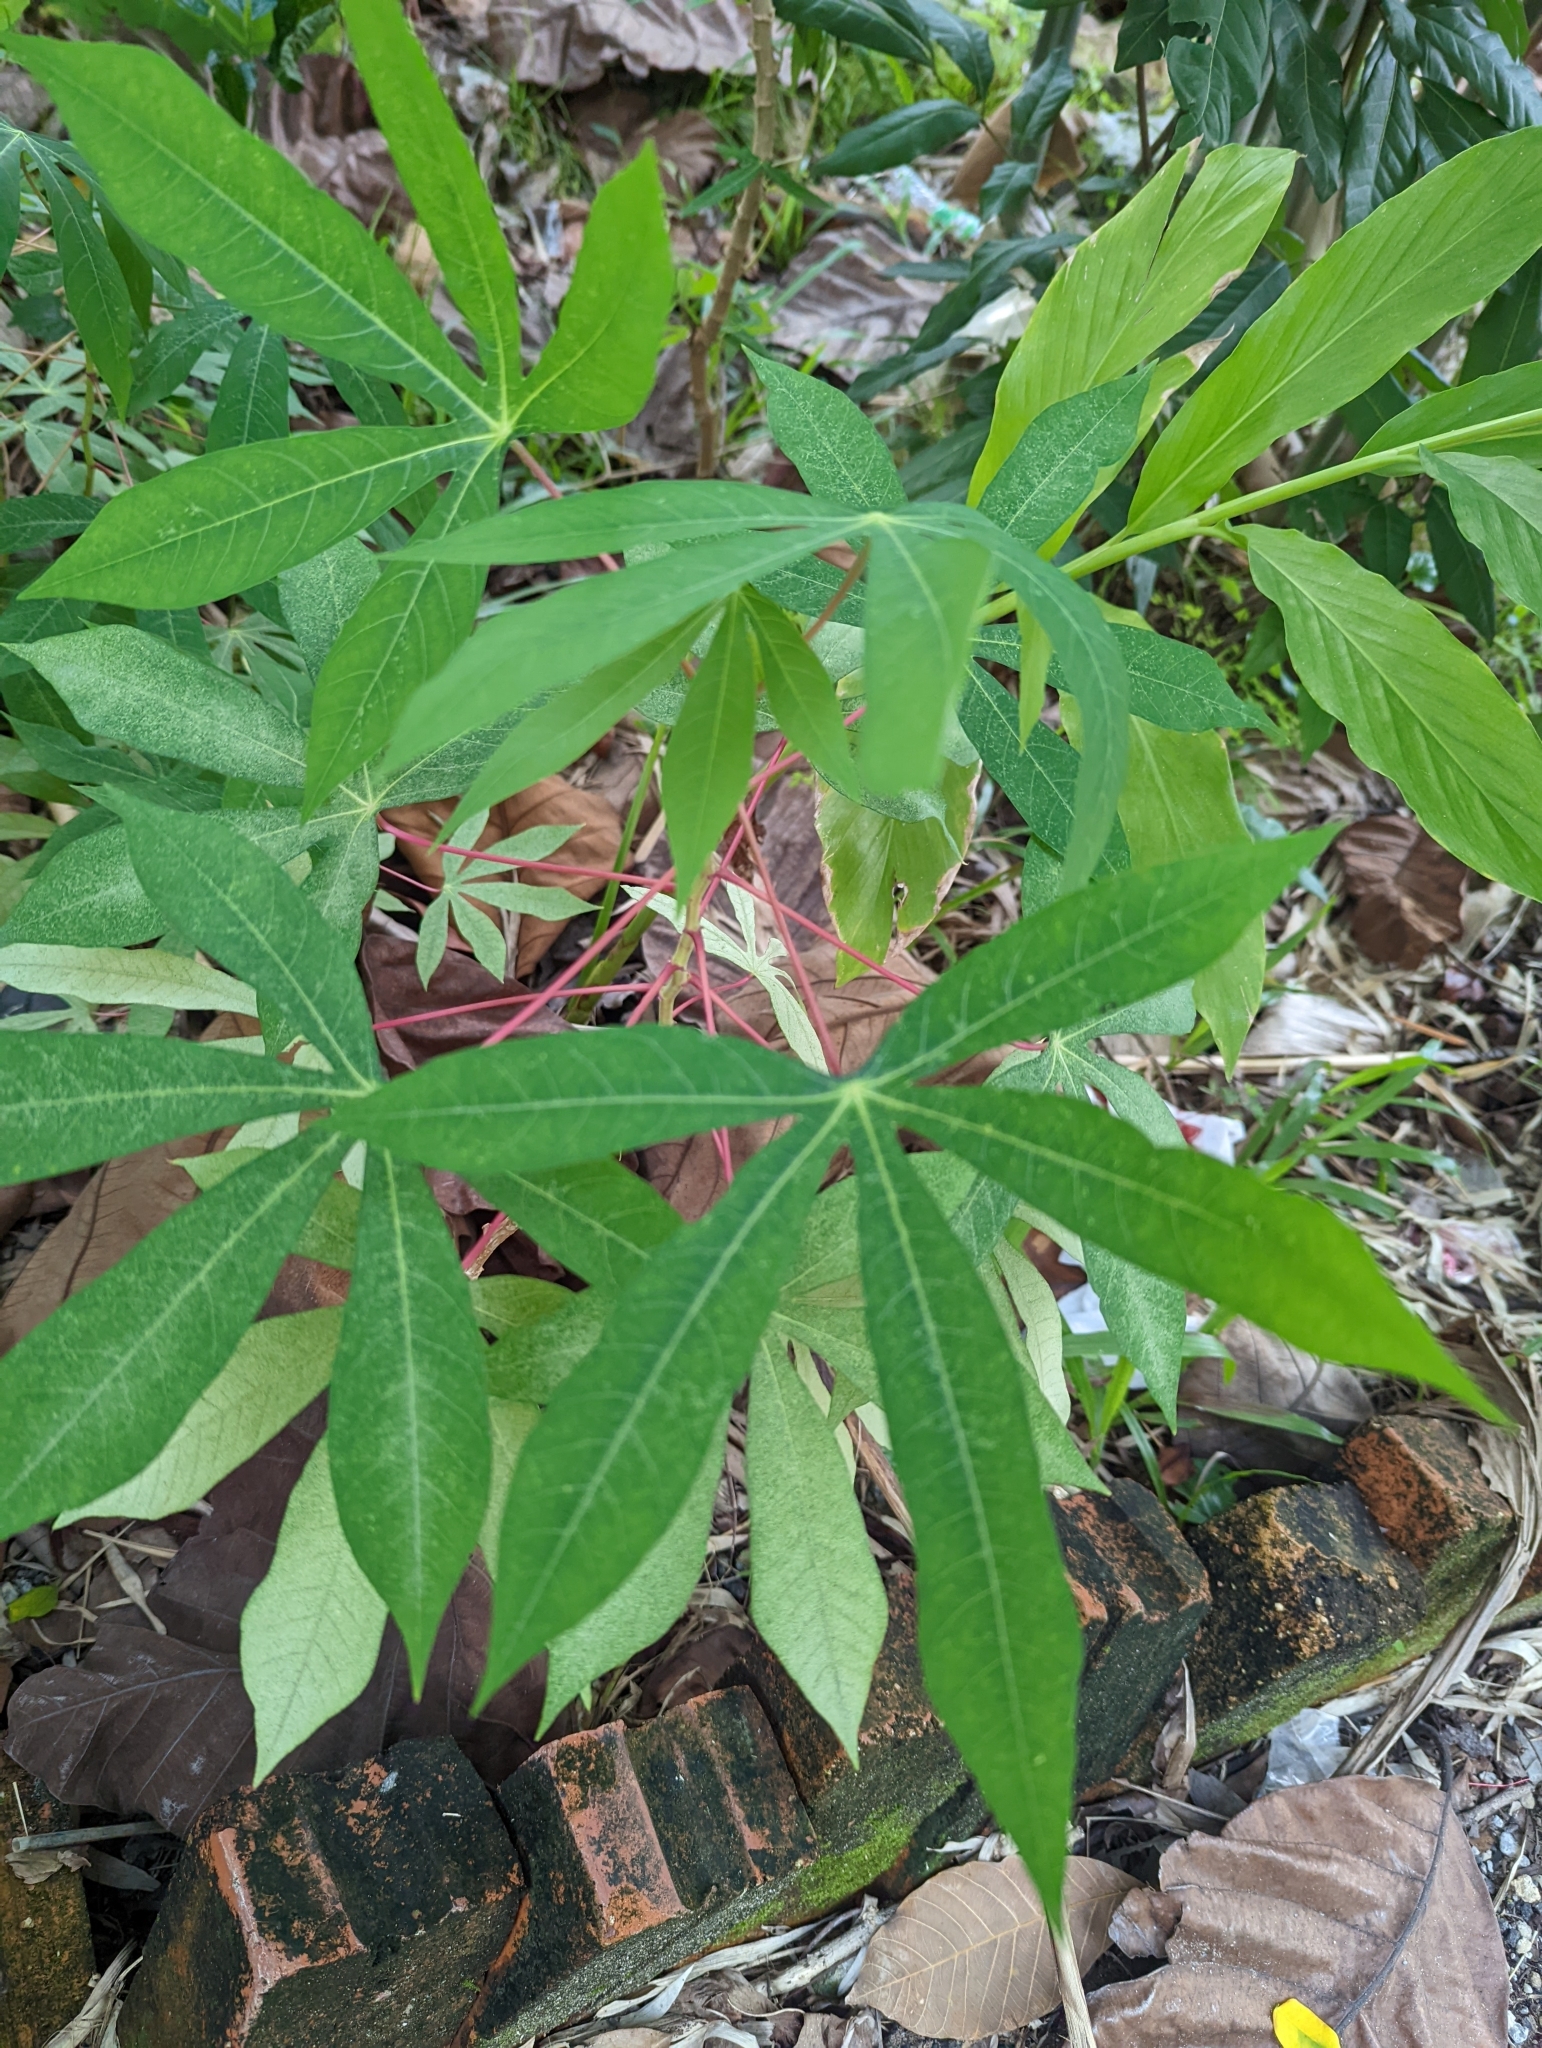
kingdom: Plantae
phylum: Tracheophyta
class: Magnoliopsida
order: Malpighiales
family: Euphorbiaceae
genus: Manihot
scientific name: Manihot esculenta
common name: Cassava
